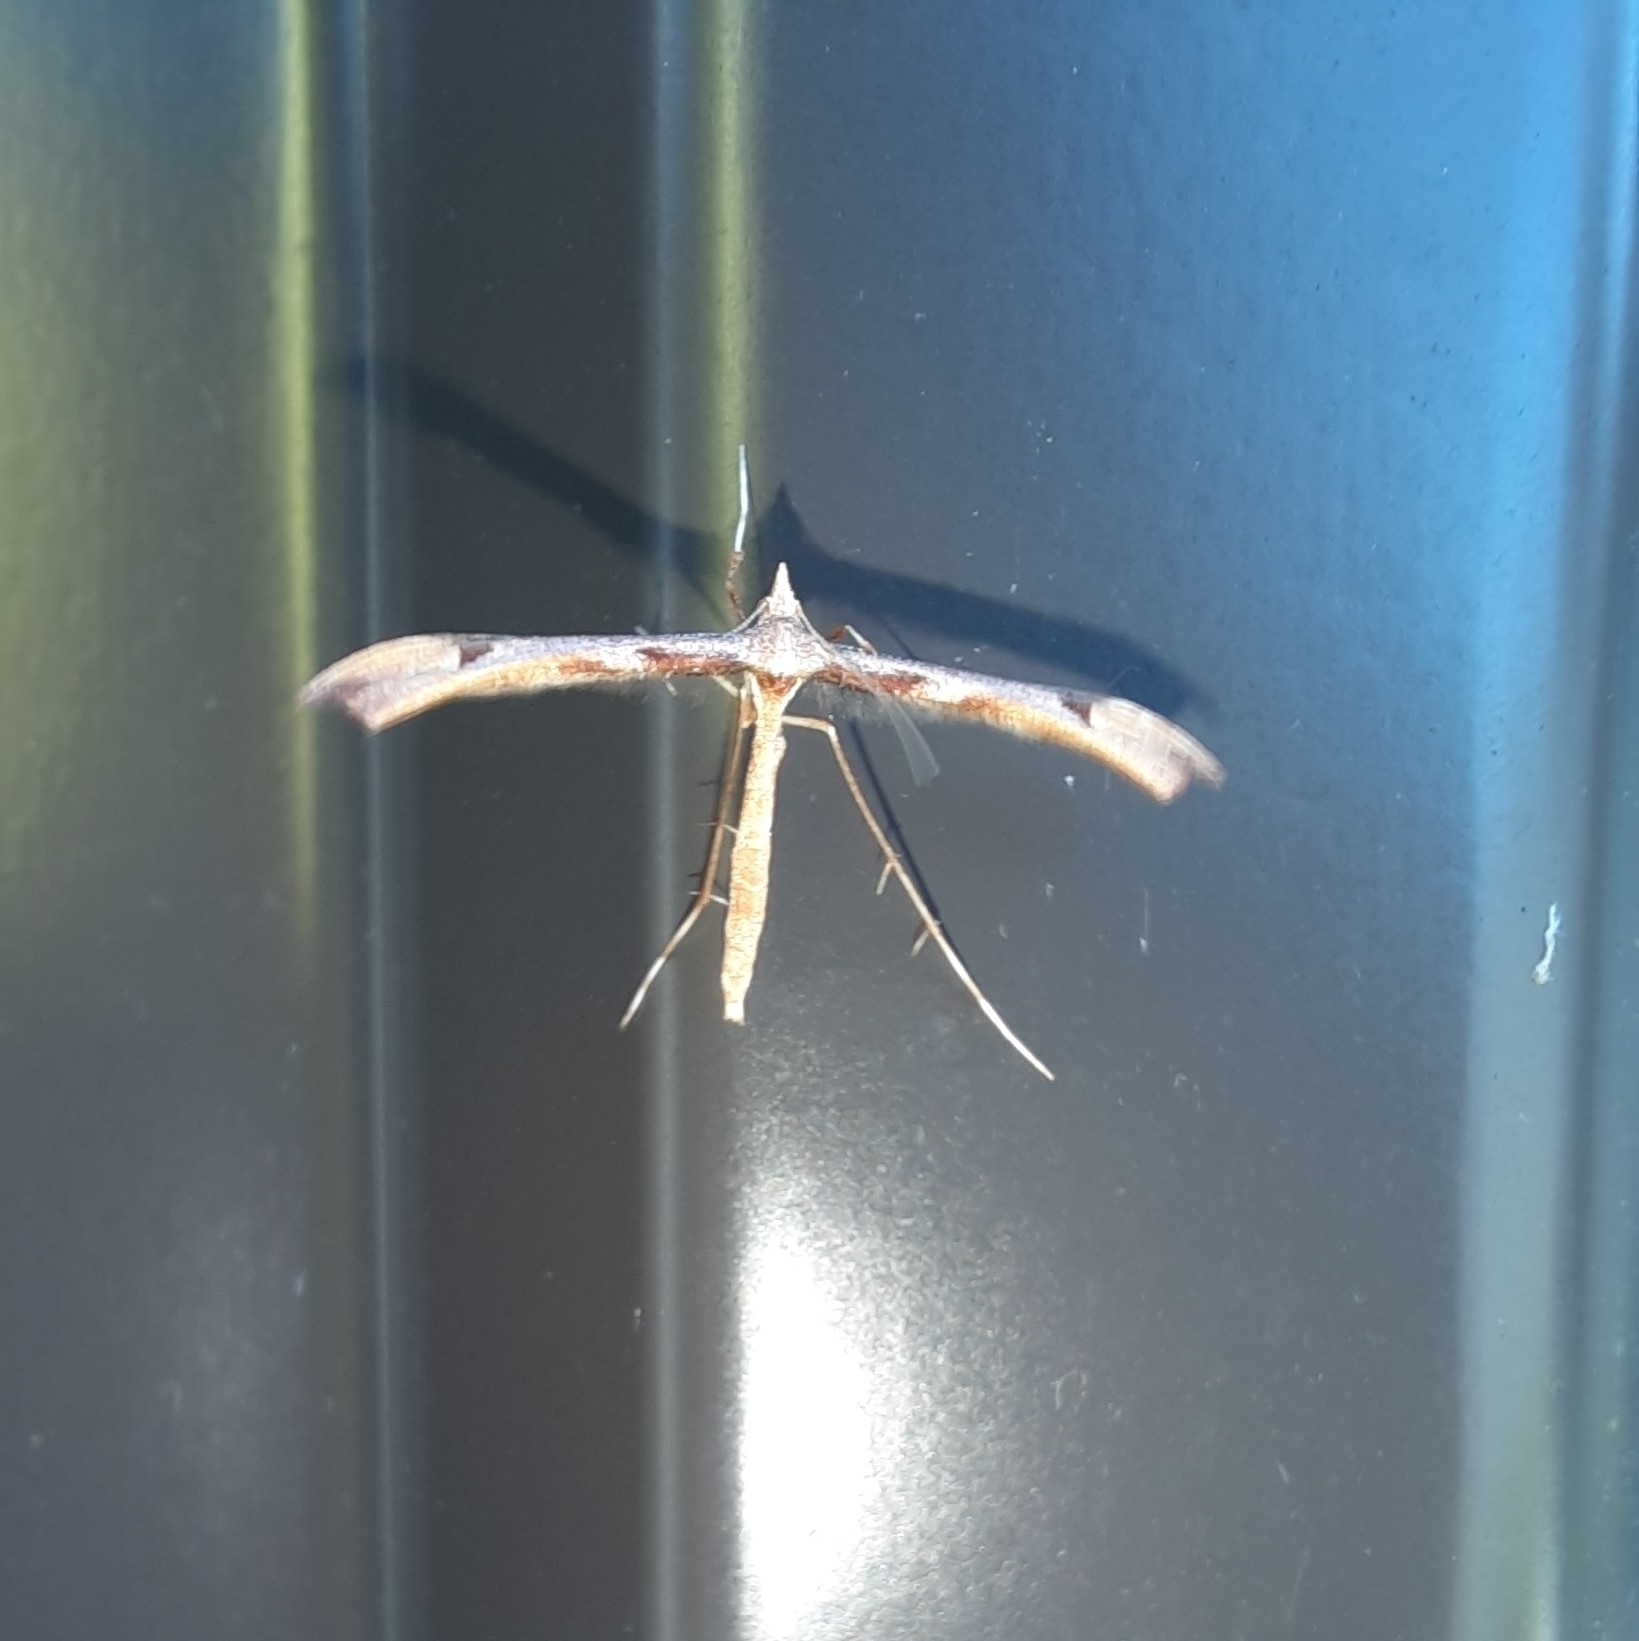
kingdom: Animalia
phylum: Arthropoda
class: Insecta
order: Lepidoptera
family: Pterophoridae
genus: Amblyptilia
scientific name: Amblyptilia heliastis
